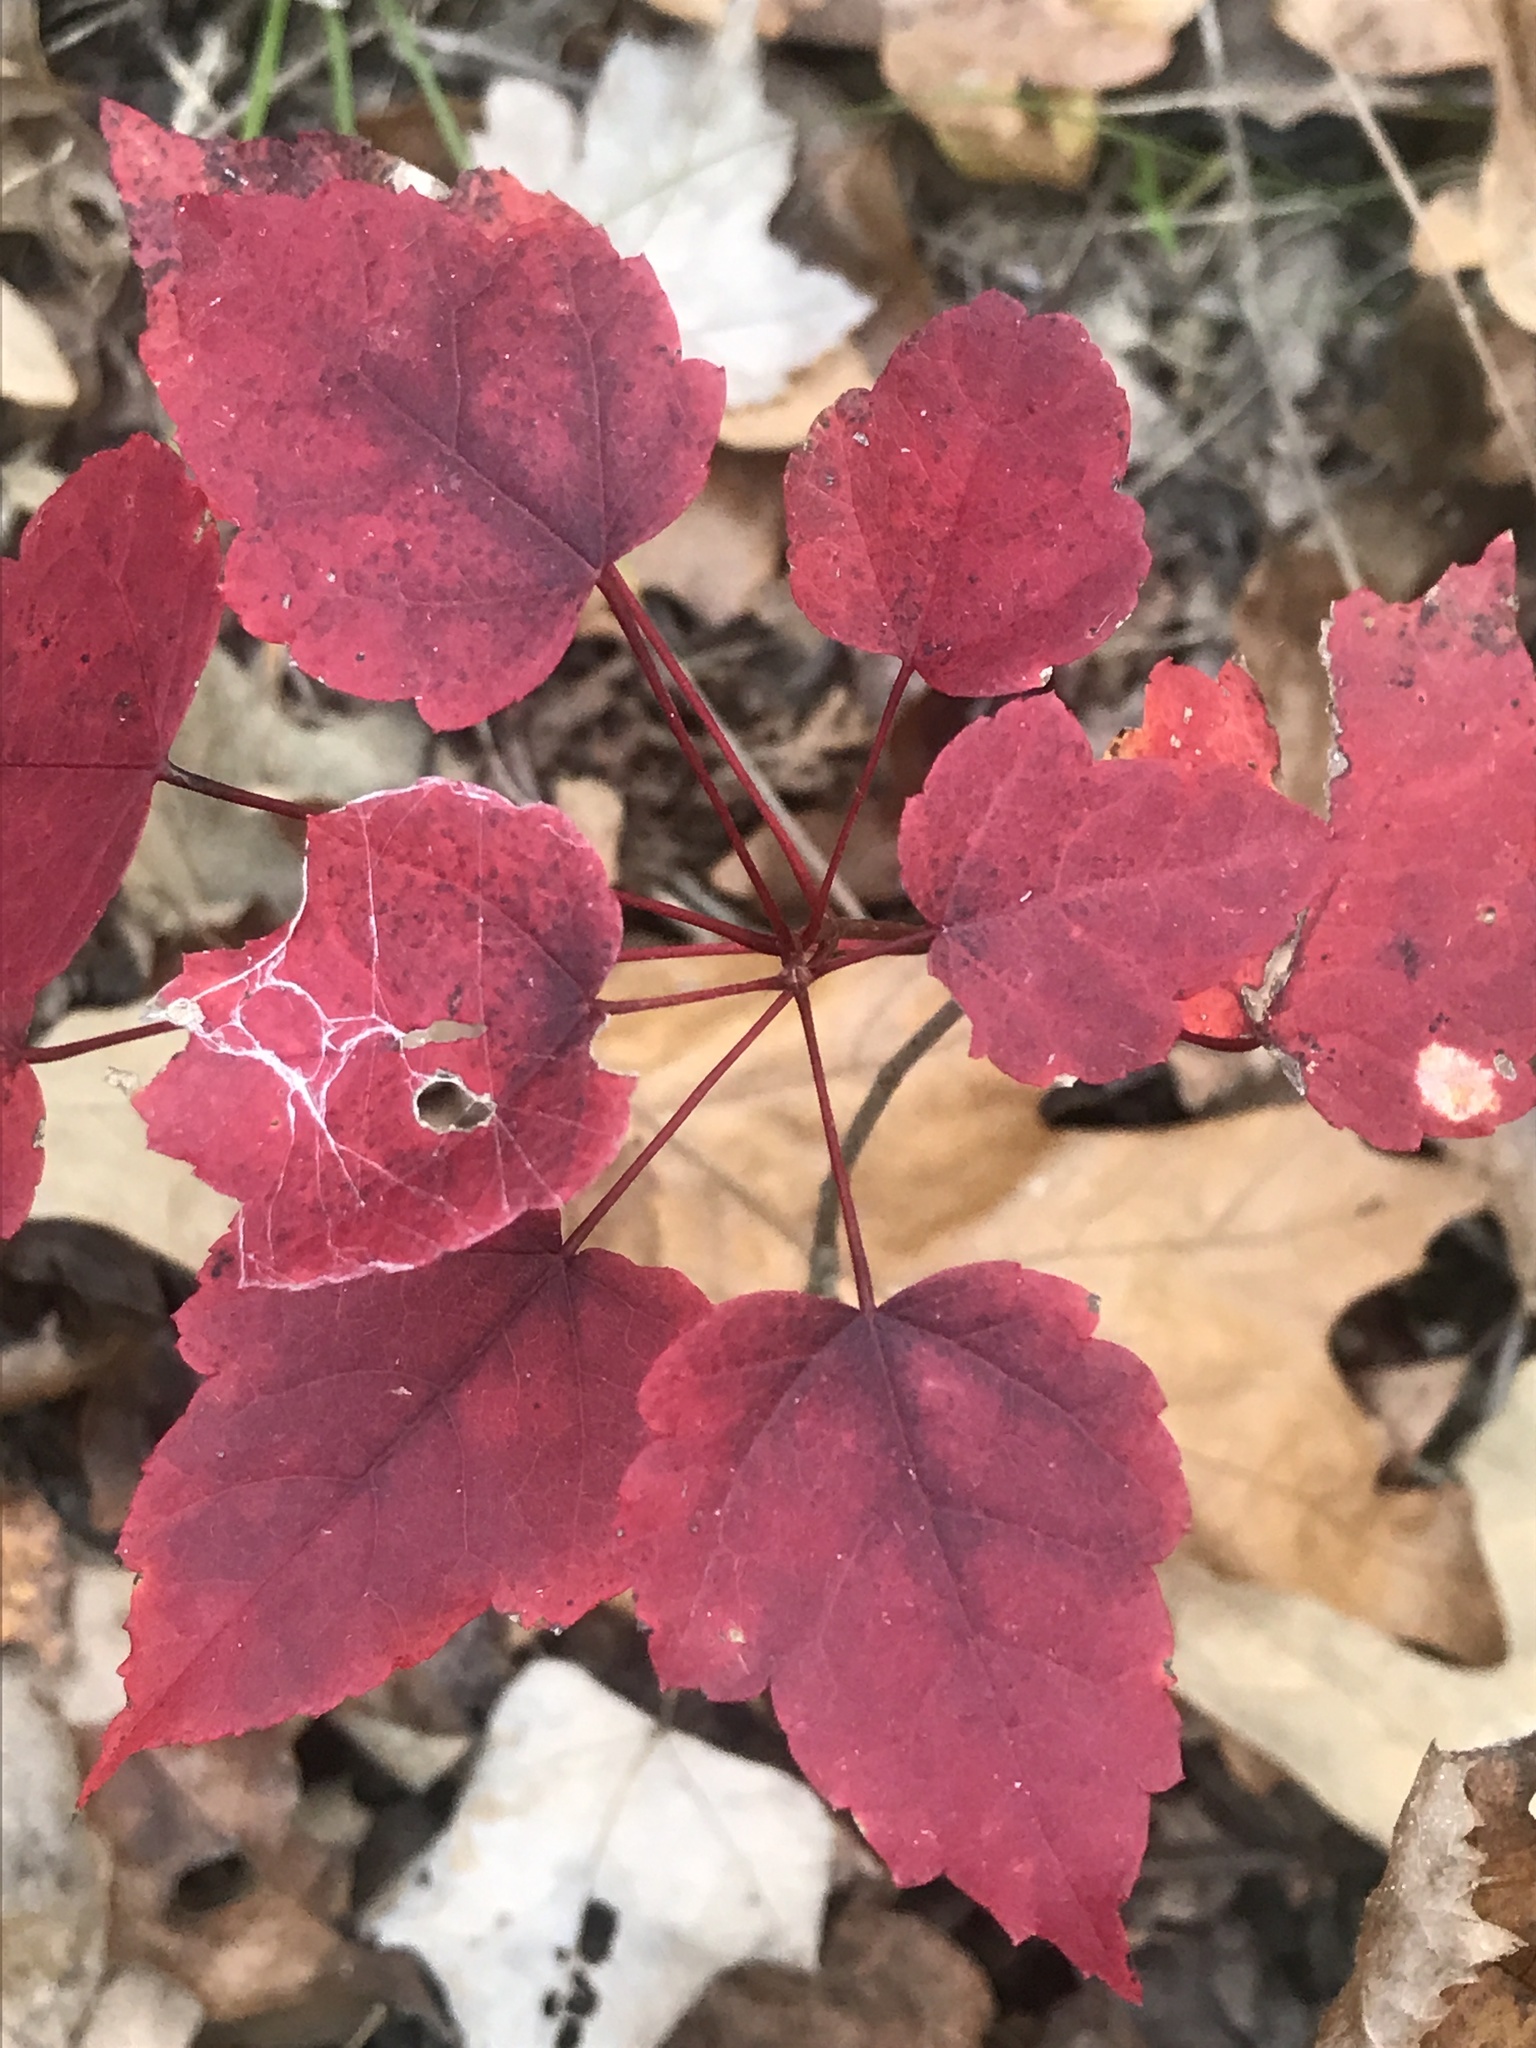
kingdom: Plantae
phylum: Tracheophyta
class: Magnoliopsida
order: Sapindales
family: Sapindaceae
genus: Acer
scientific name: Acer rubrum
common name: Red maple
